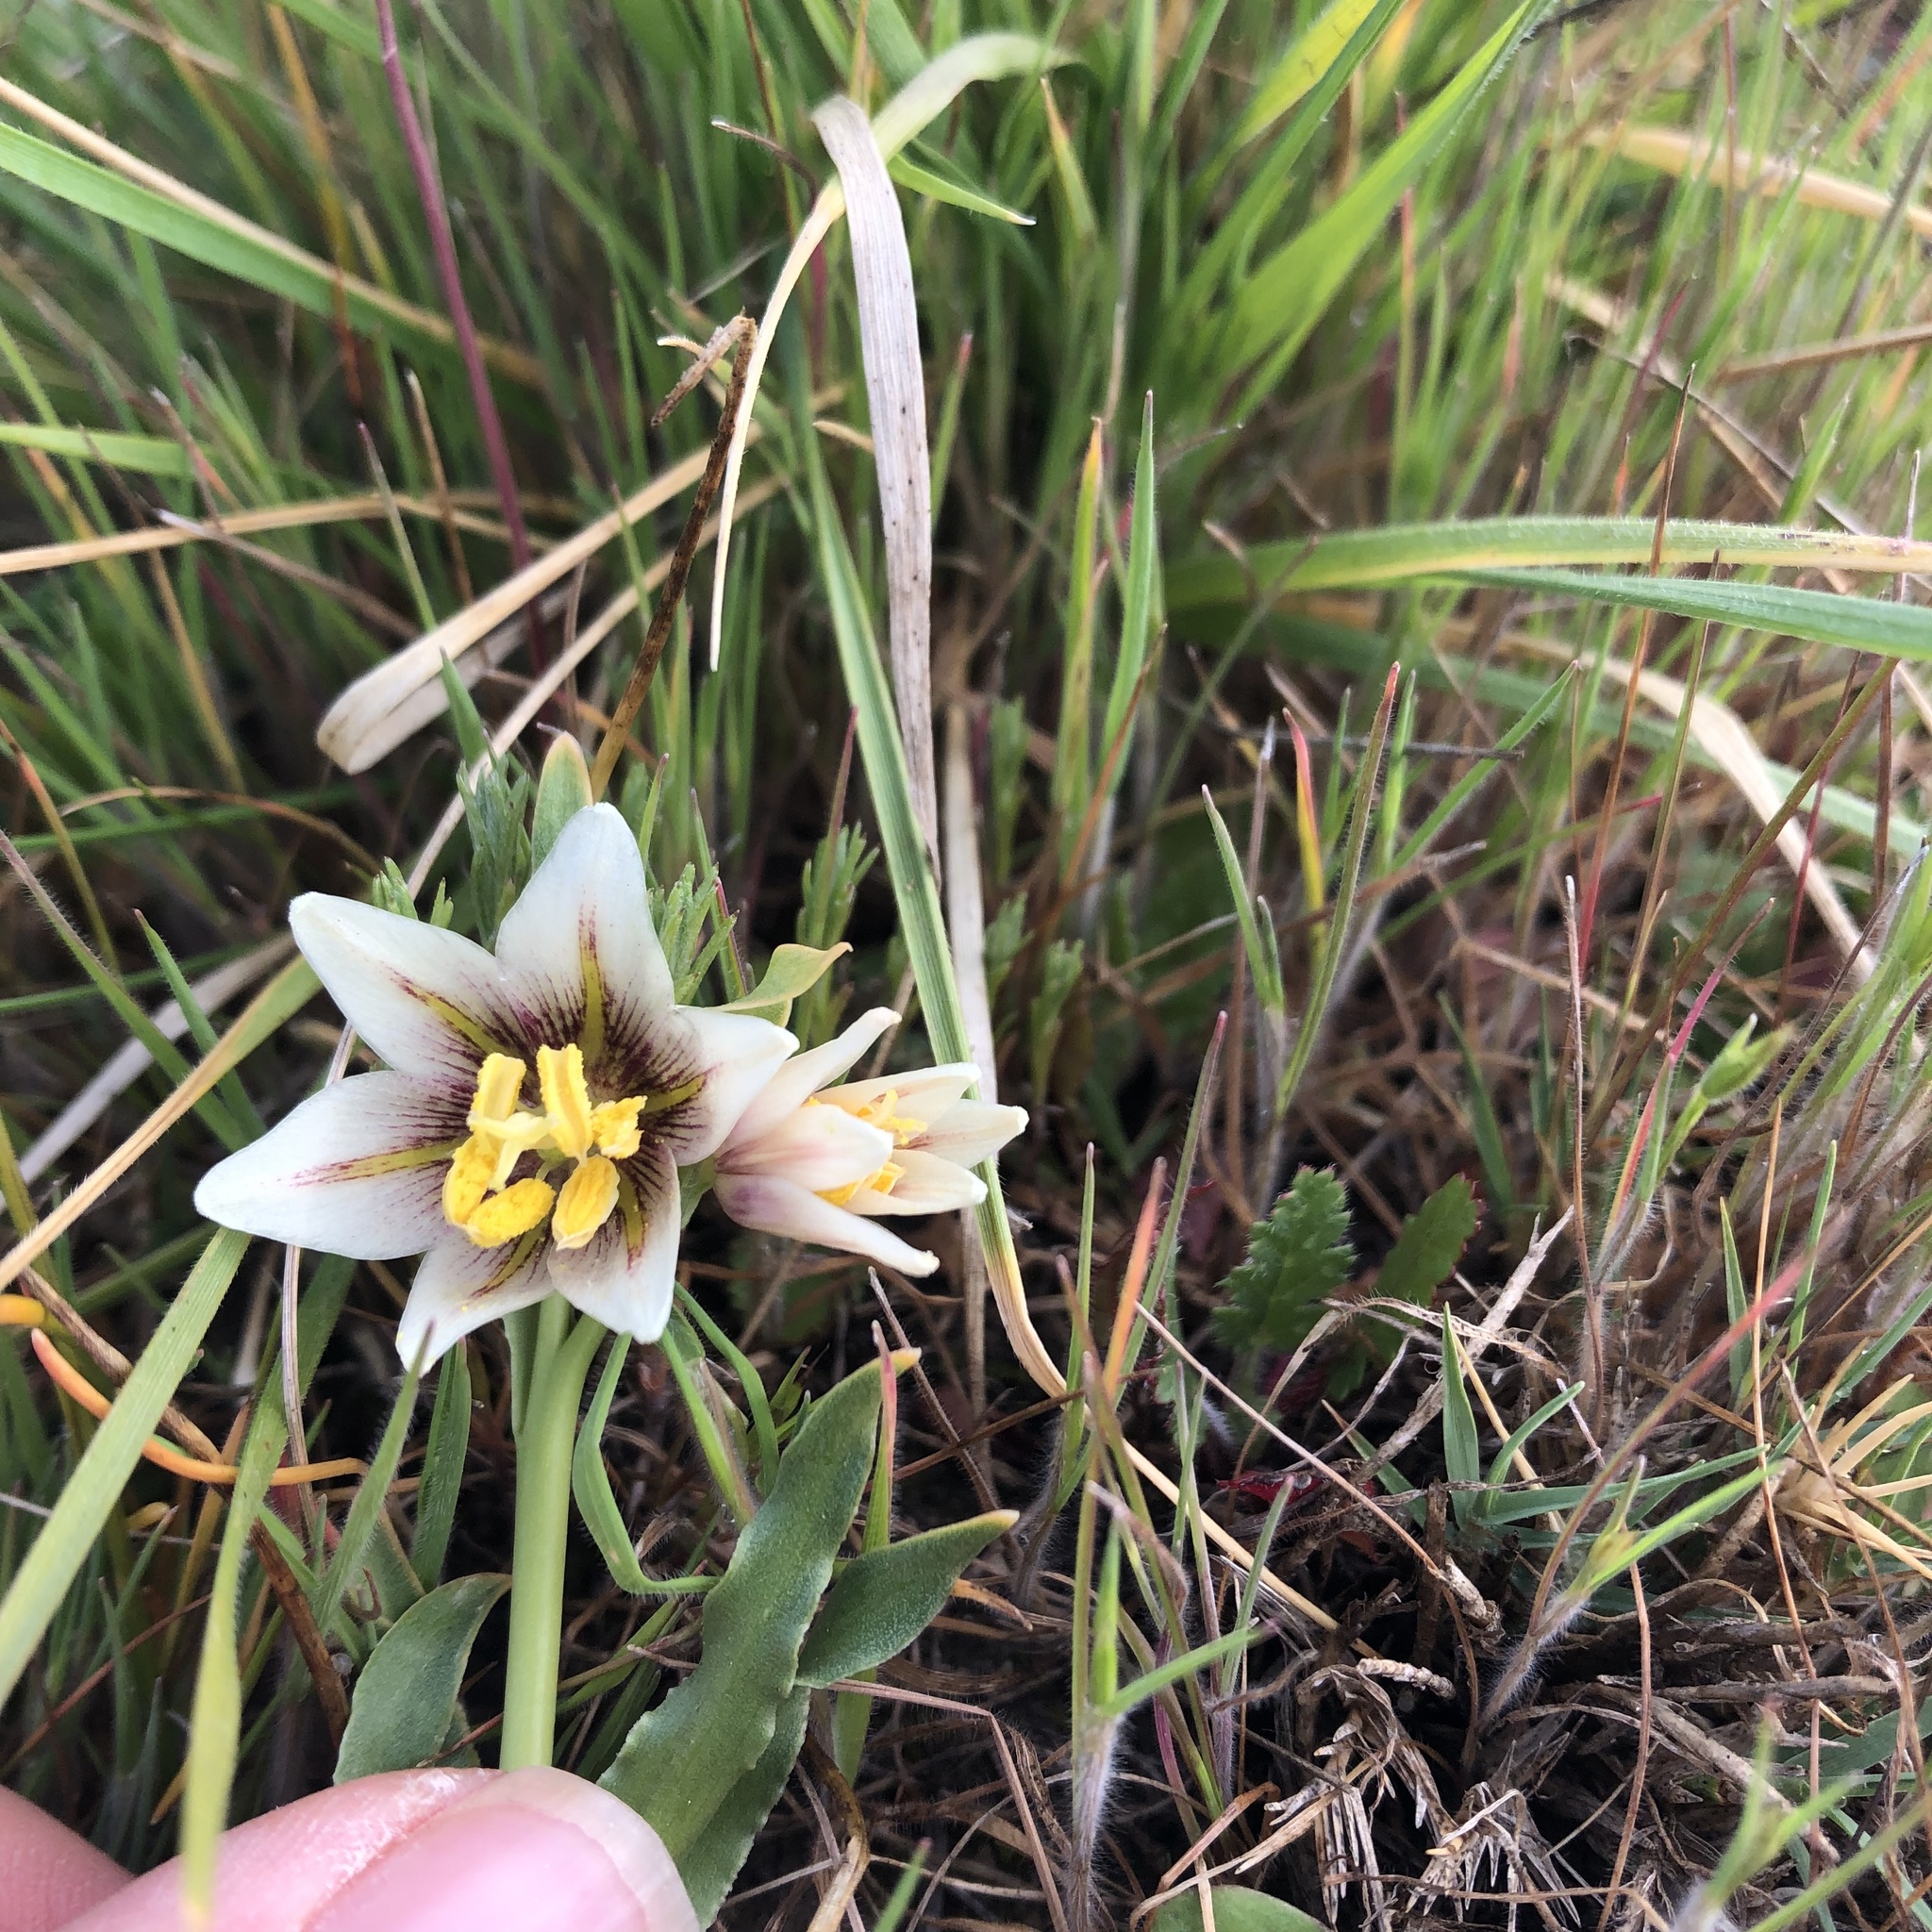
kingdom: Plantae
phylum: Tracheophyta
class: Liliopsida
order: Liliales
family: Liliaceae
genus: Fritillaria
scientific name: Fritillaria liliacea
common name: Fragrant fritillary
